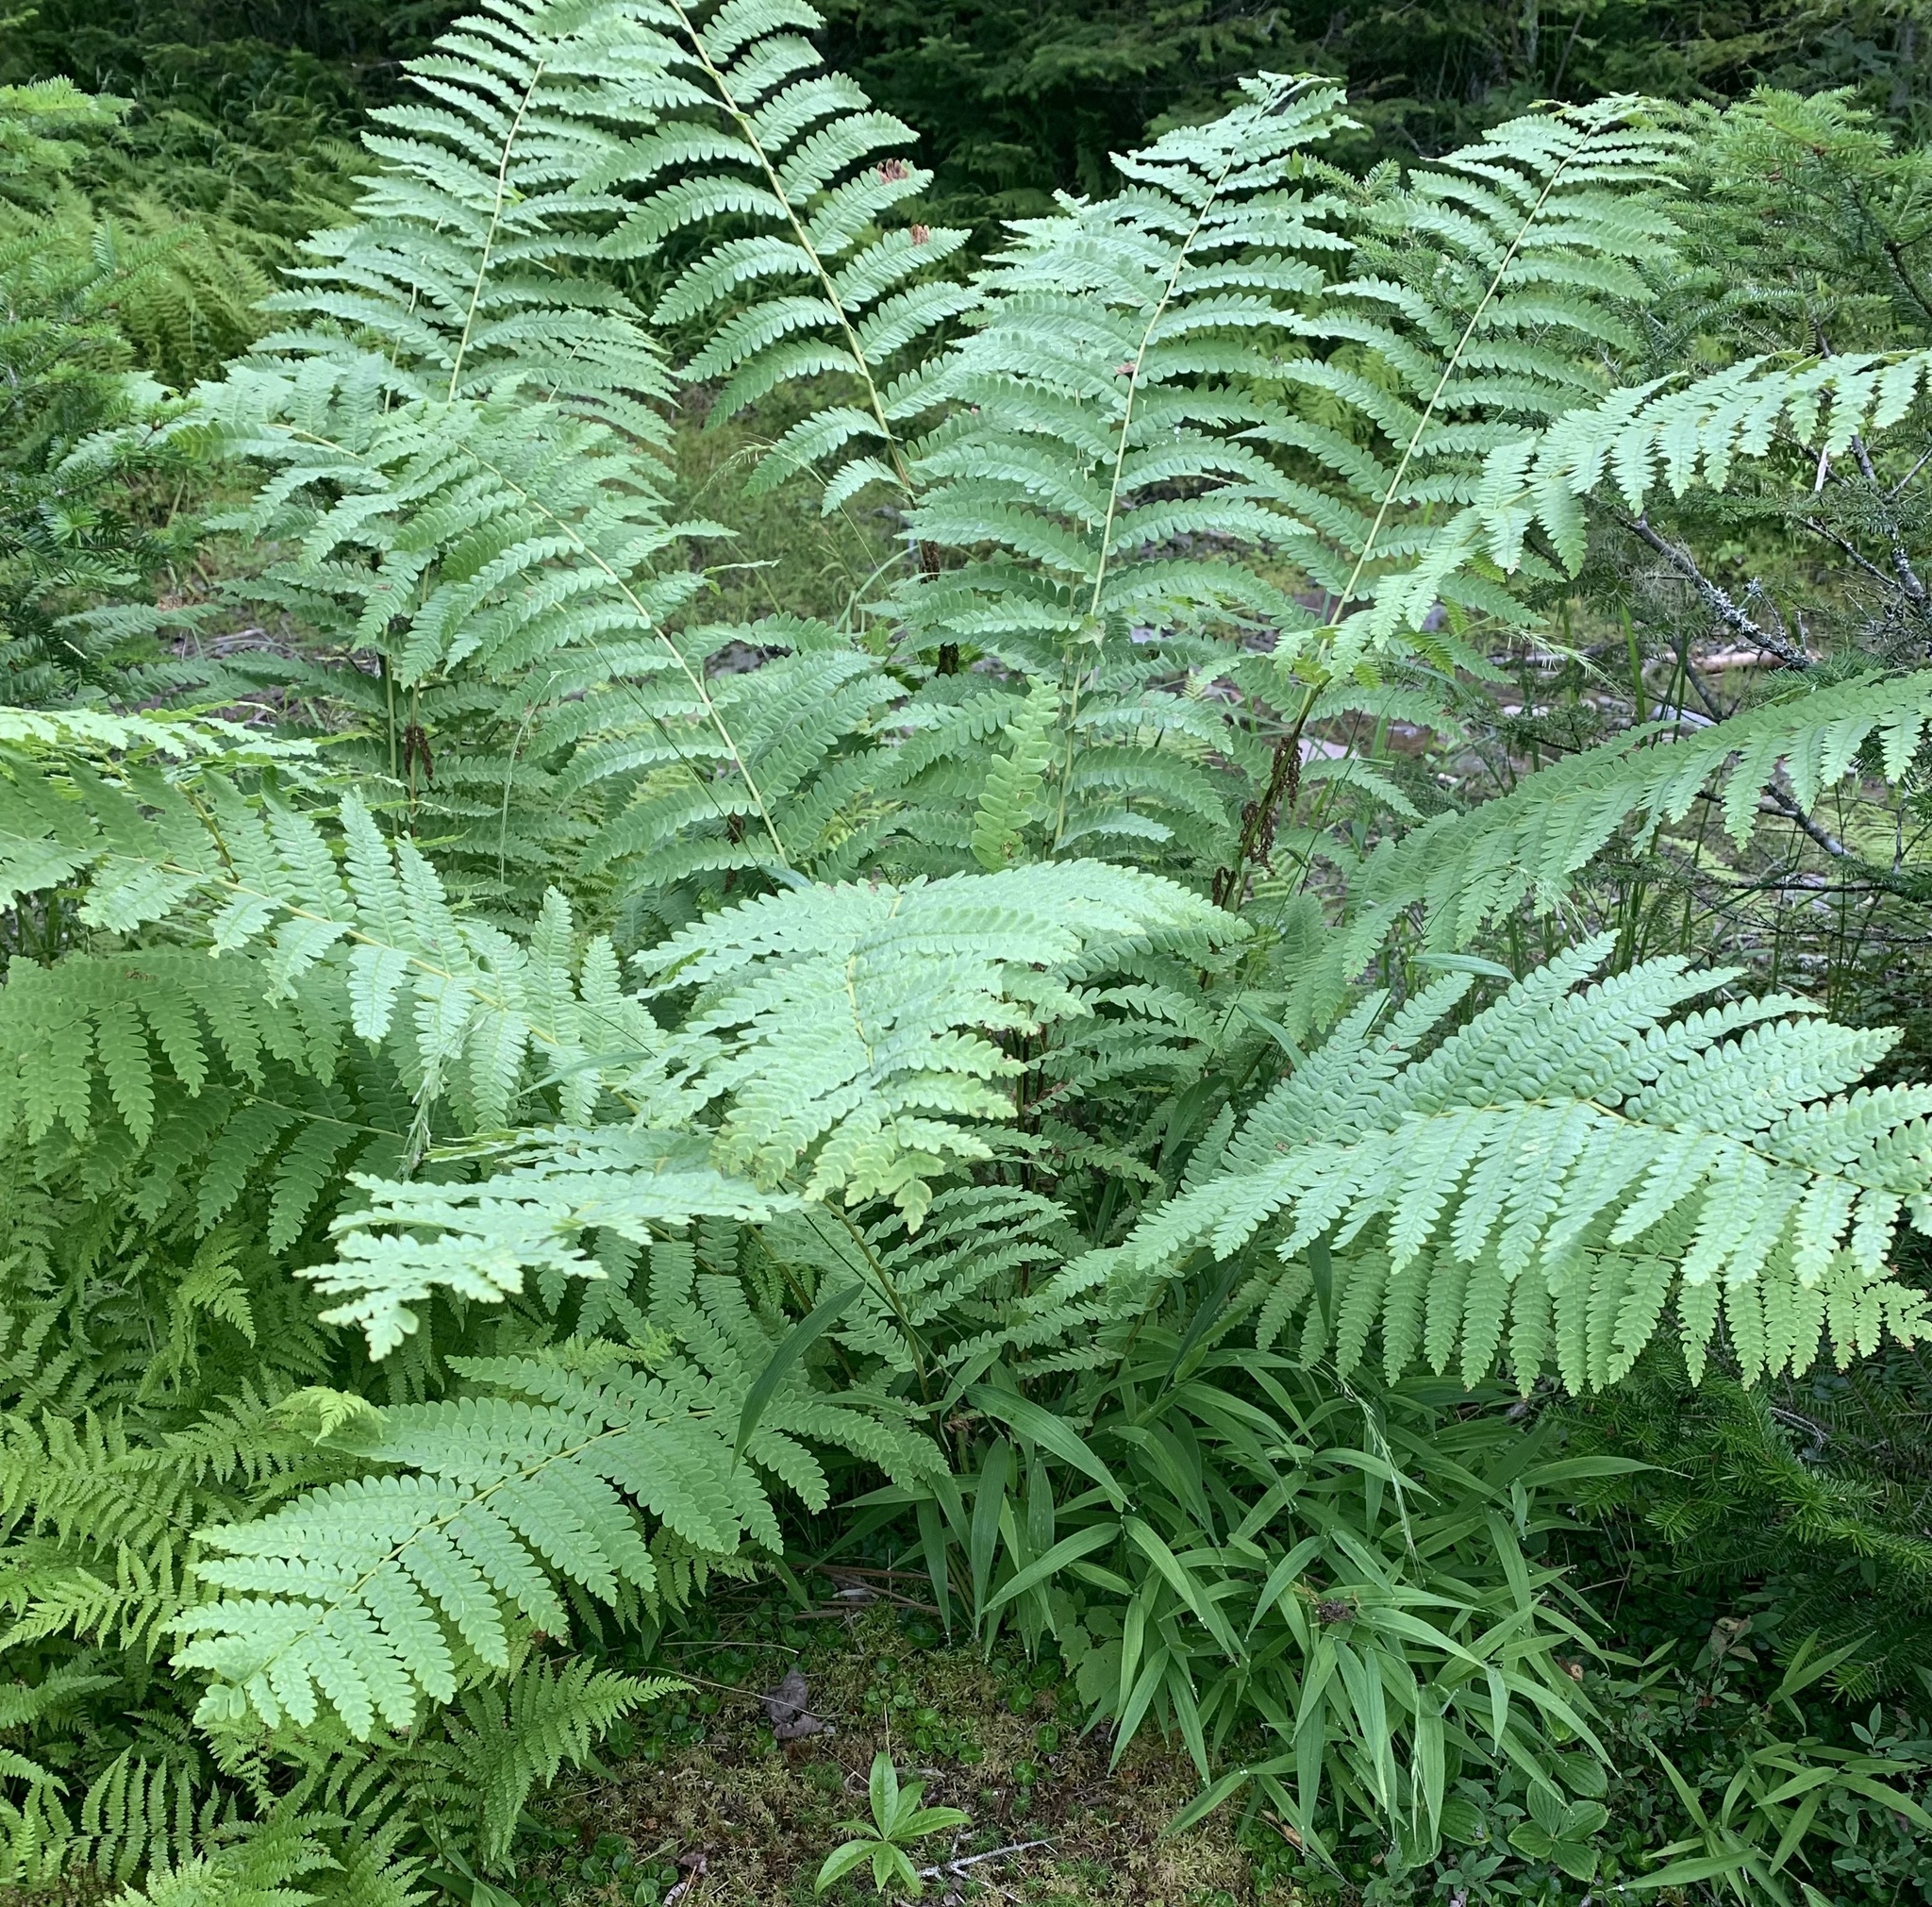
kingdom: Plantae
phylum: Tracheophyta
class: Polypodiopsida
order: Osmundales
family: Osmundaceae
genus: Claytosmunda
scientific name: Claytosmunda claytoniana
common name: Clayton's fern
